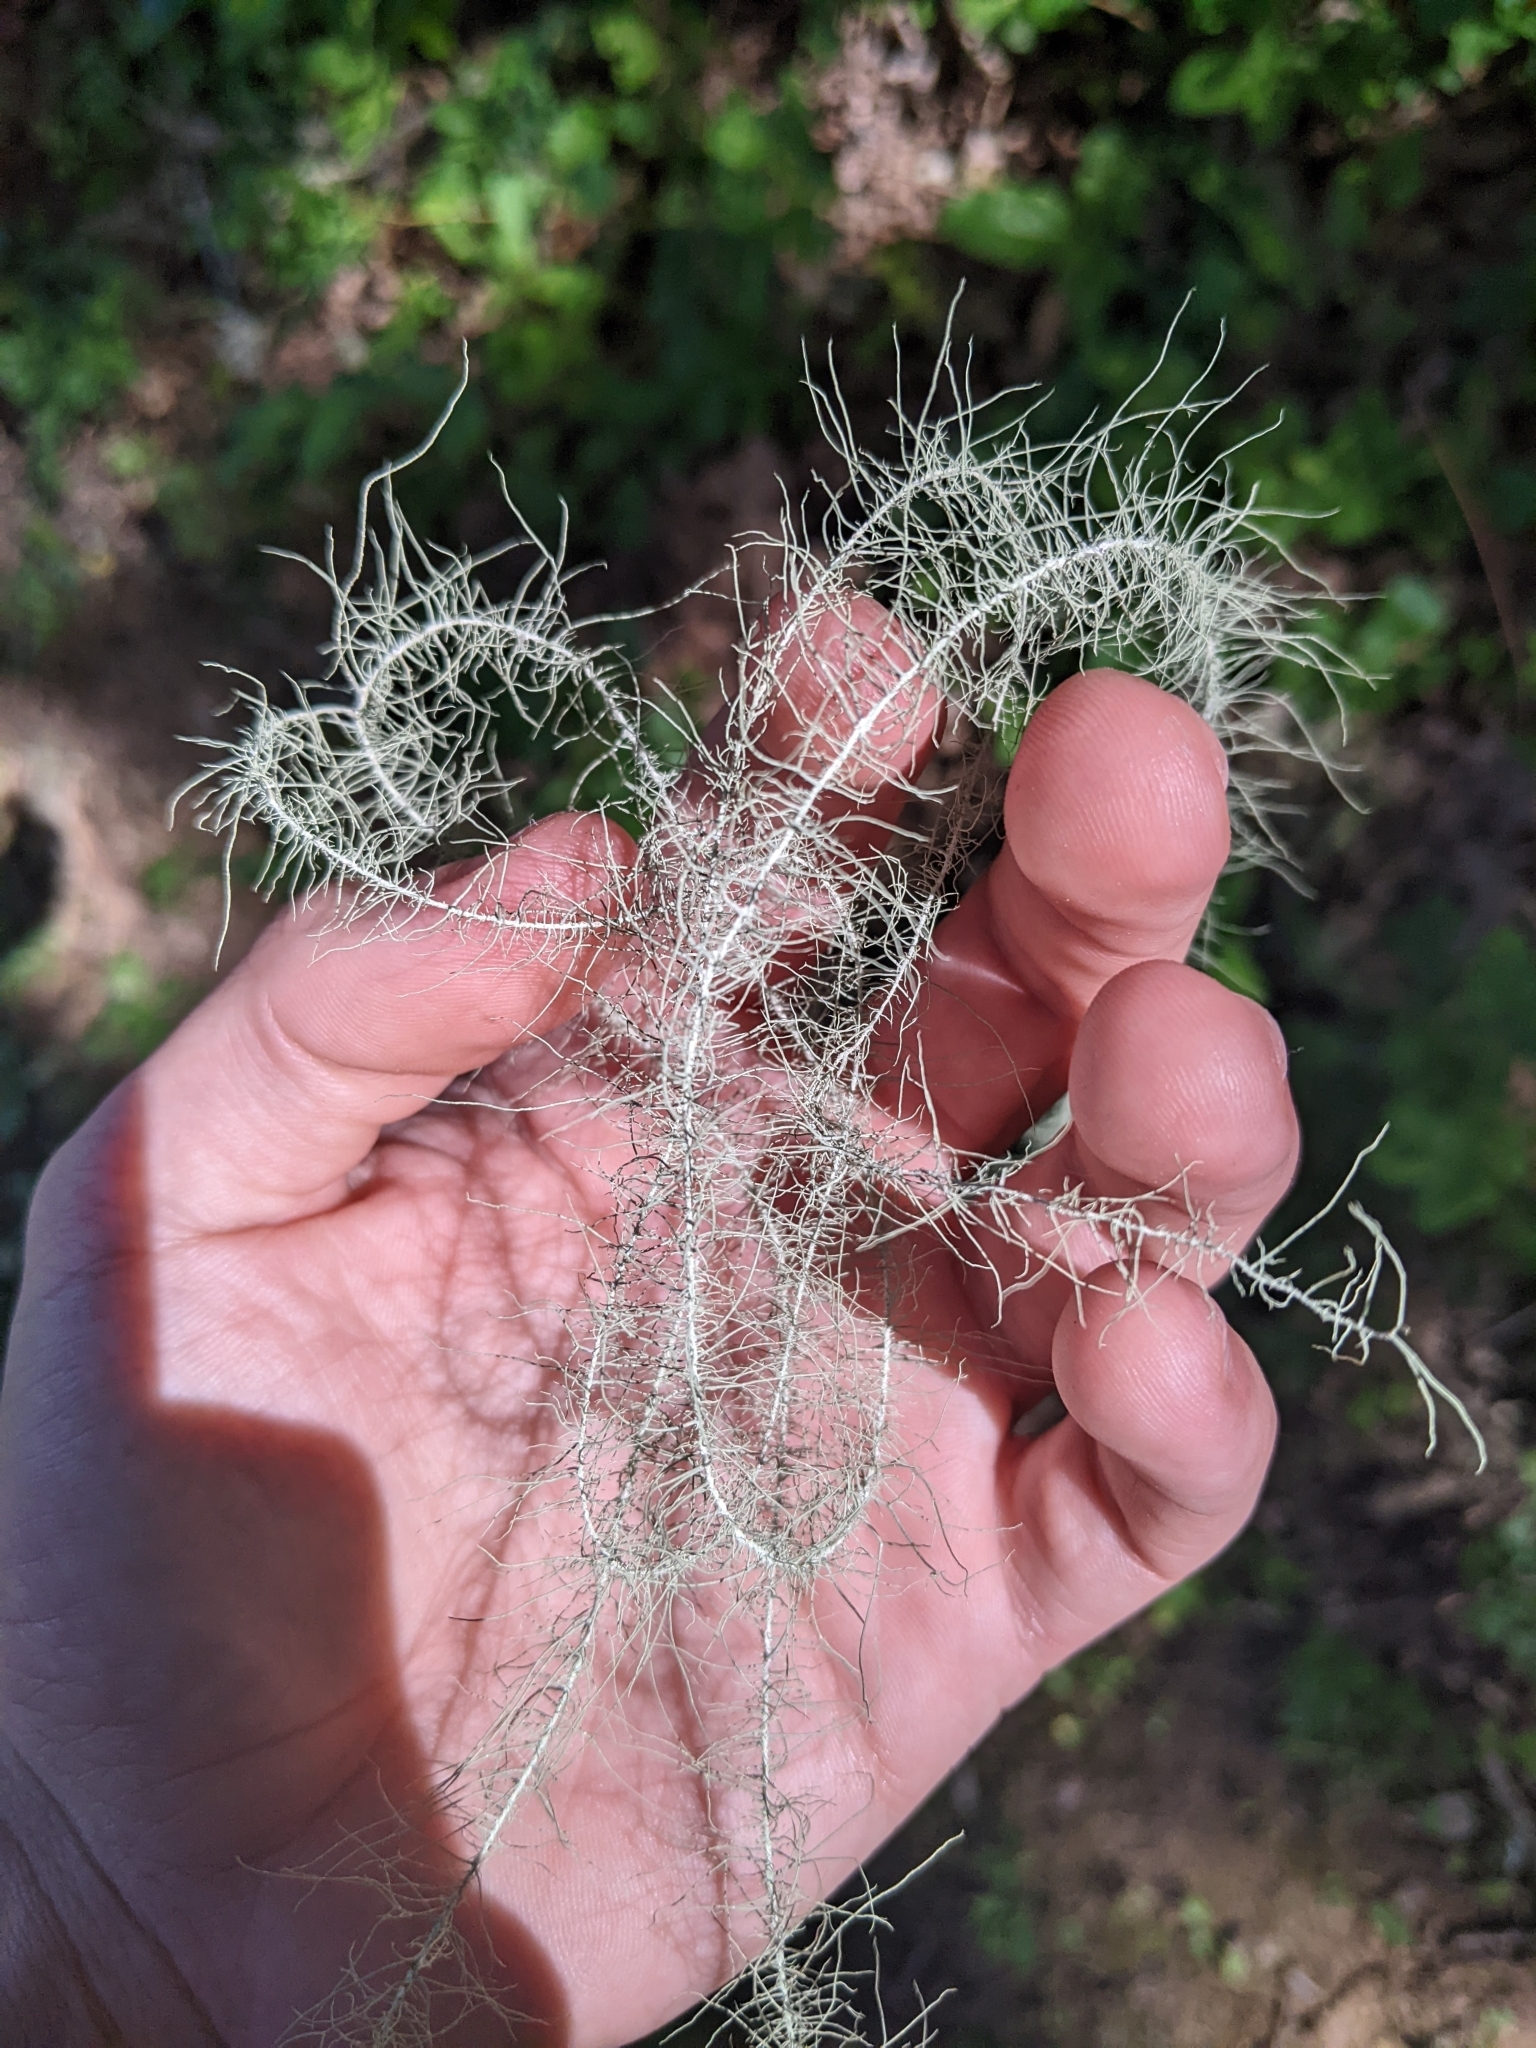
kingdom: Fungi
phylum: Ascomycota
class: Lecanoromycetes
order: Lecanorales
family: Parmeliaceae
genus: Dolichousnea
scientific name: Dolichousnea longissima
